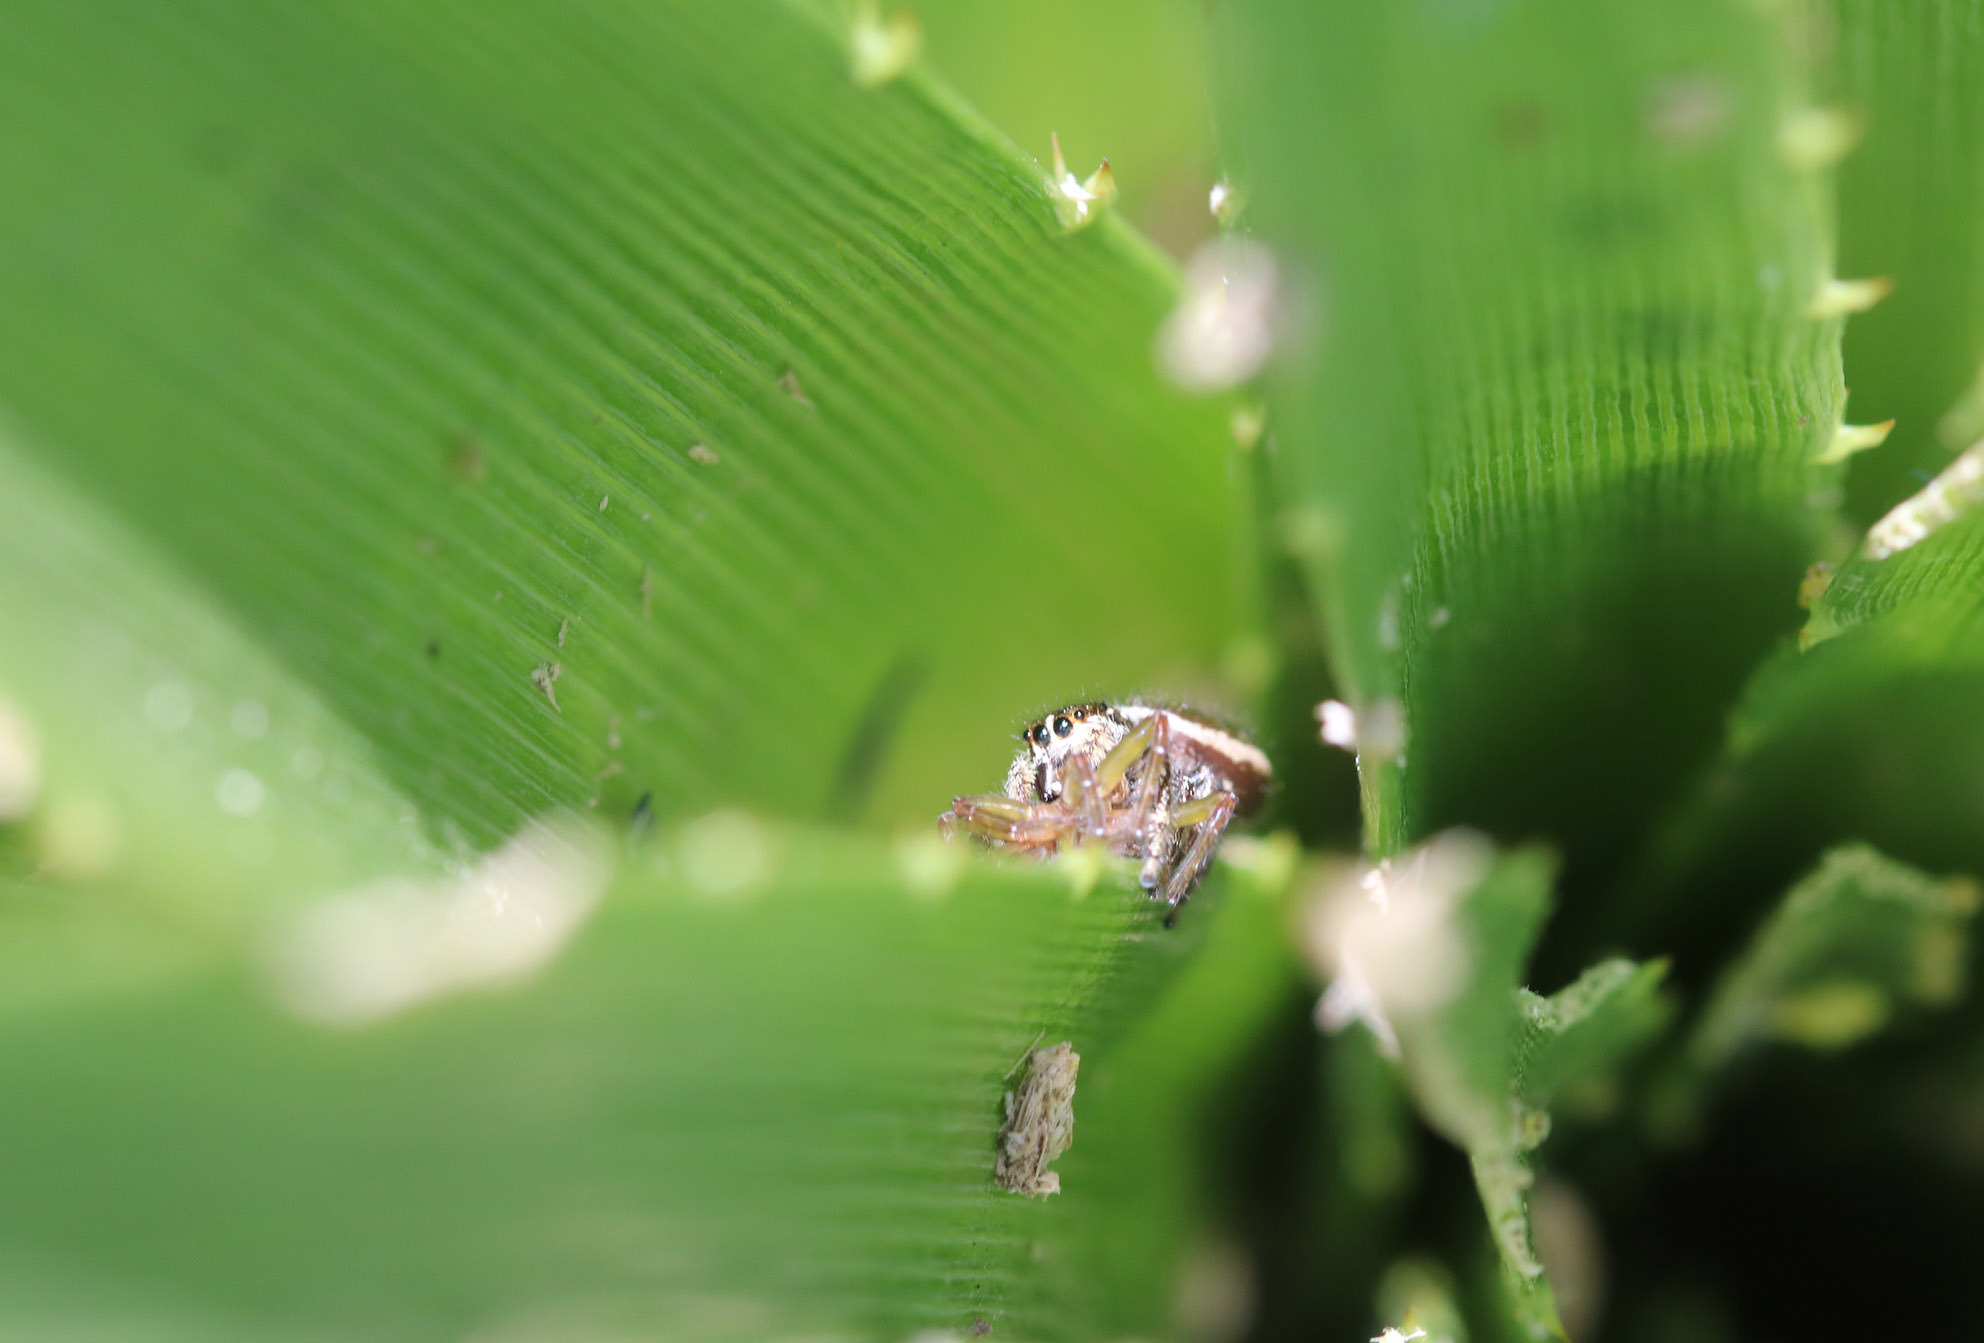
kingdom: Animalia
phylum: Arthropoda
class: Arachnida
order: Araneae
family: Salticidae
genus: Dendryphantes
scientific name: Dendryphantes mordax
